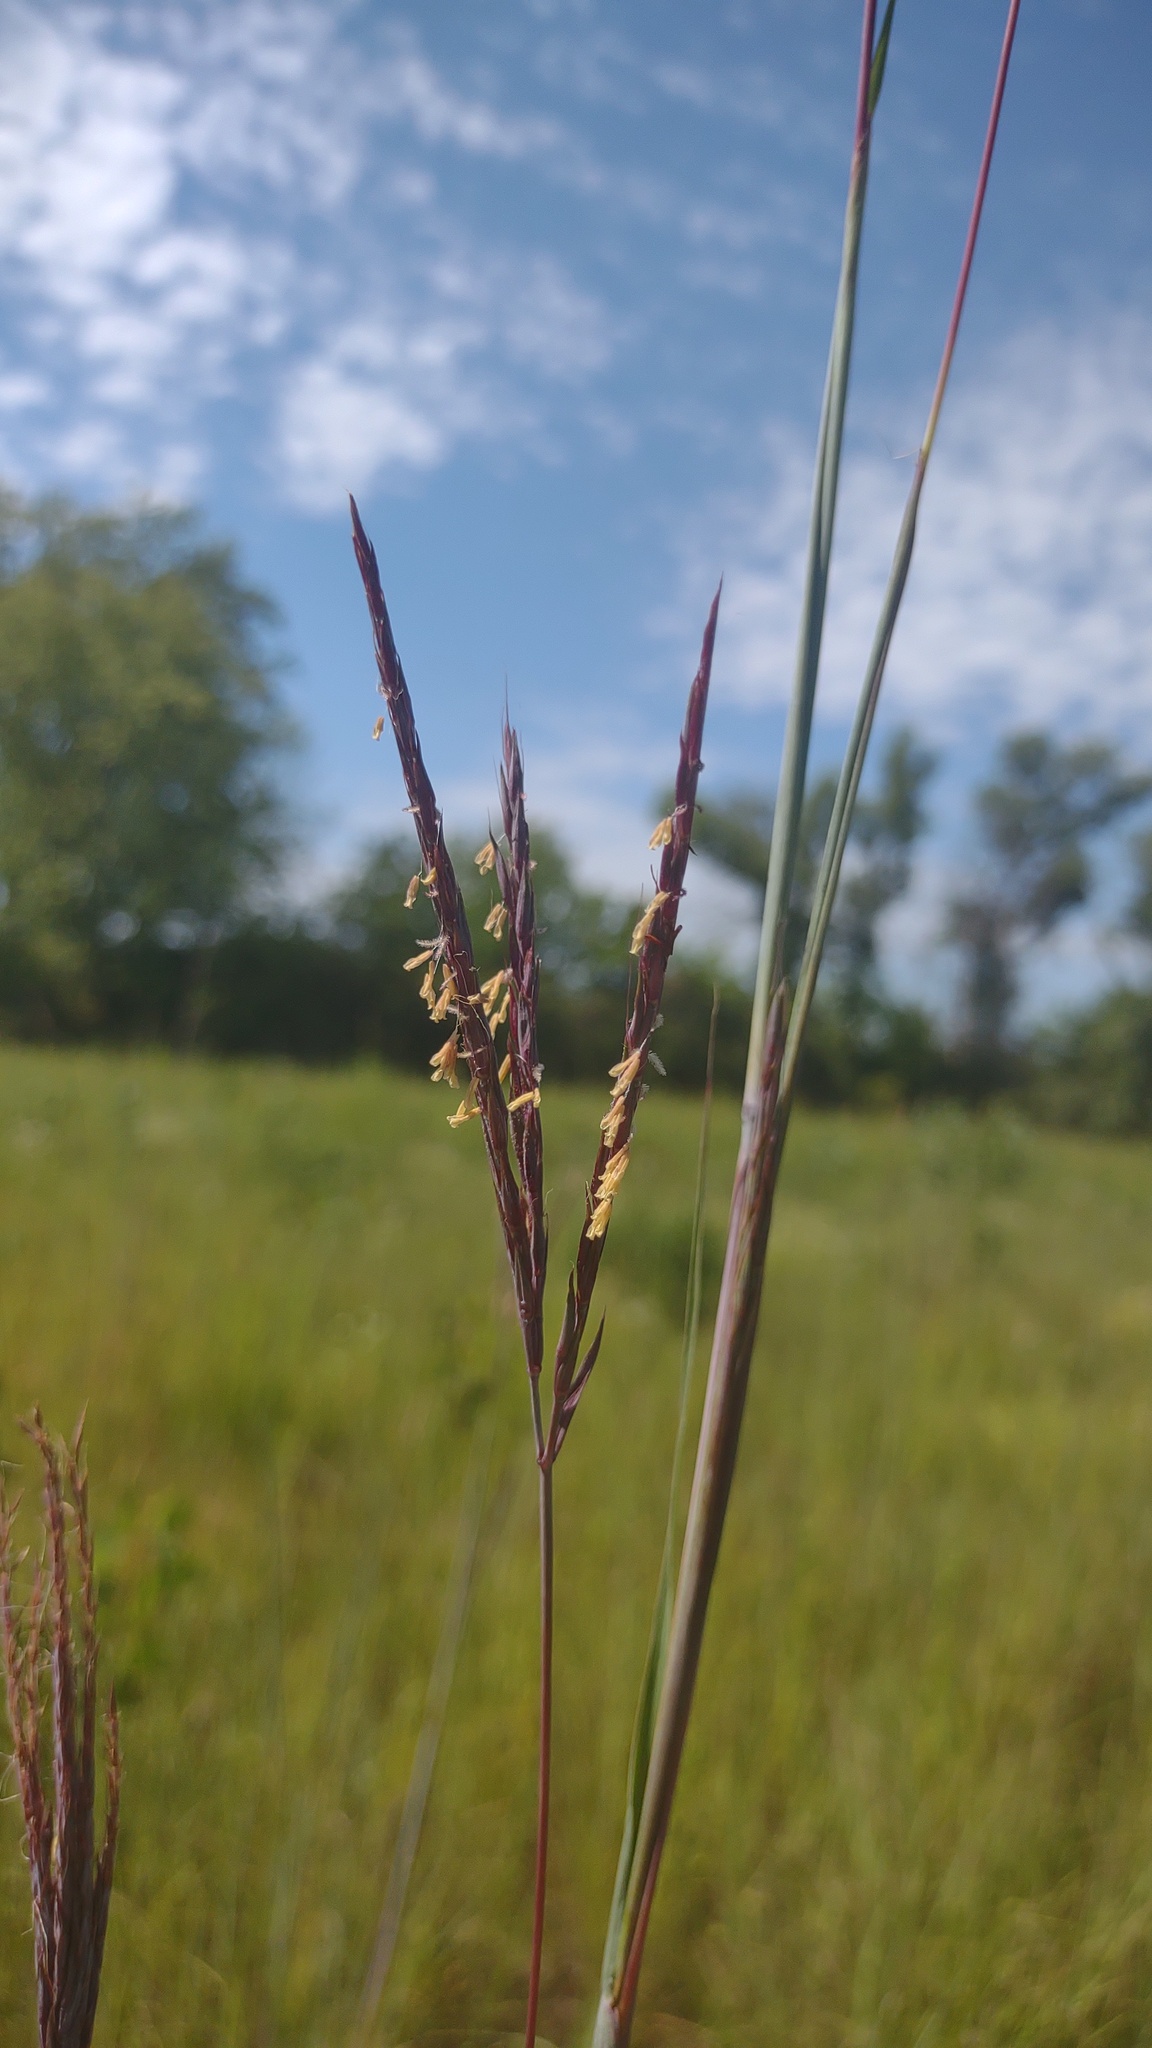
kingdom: Plantae
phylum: Tracheophyta
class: Liliopsida
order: Poales
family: Poaceae
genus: Andropogon
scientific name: Andropogon gerardi
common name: Big bluestem
